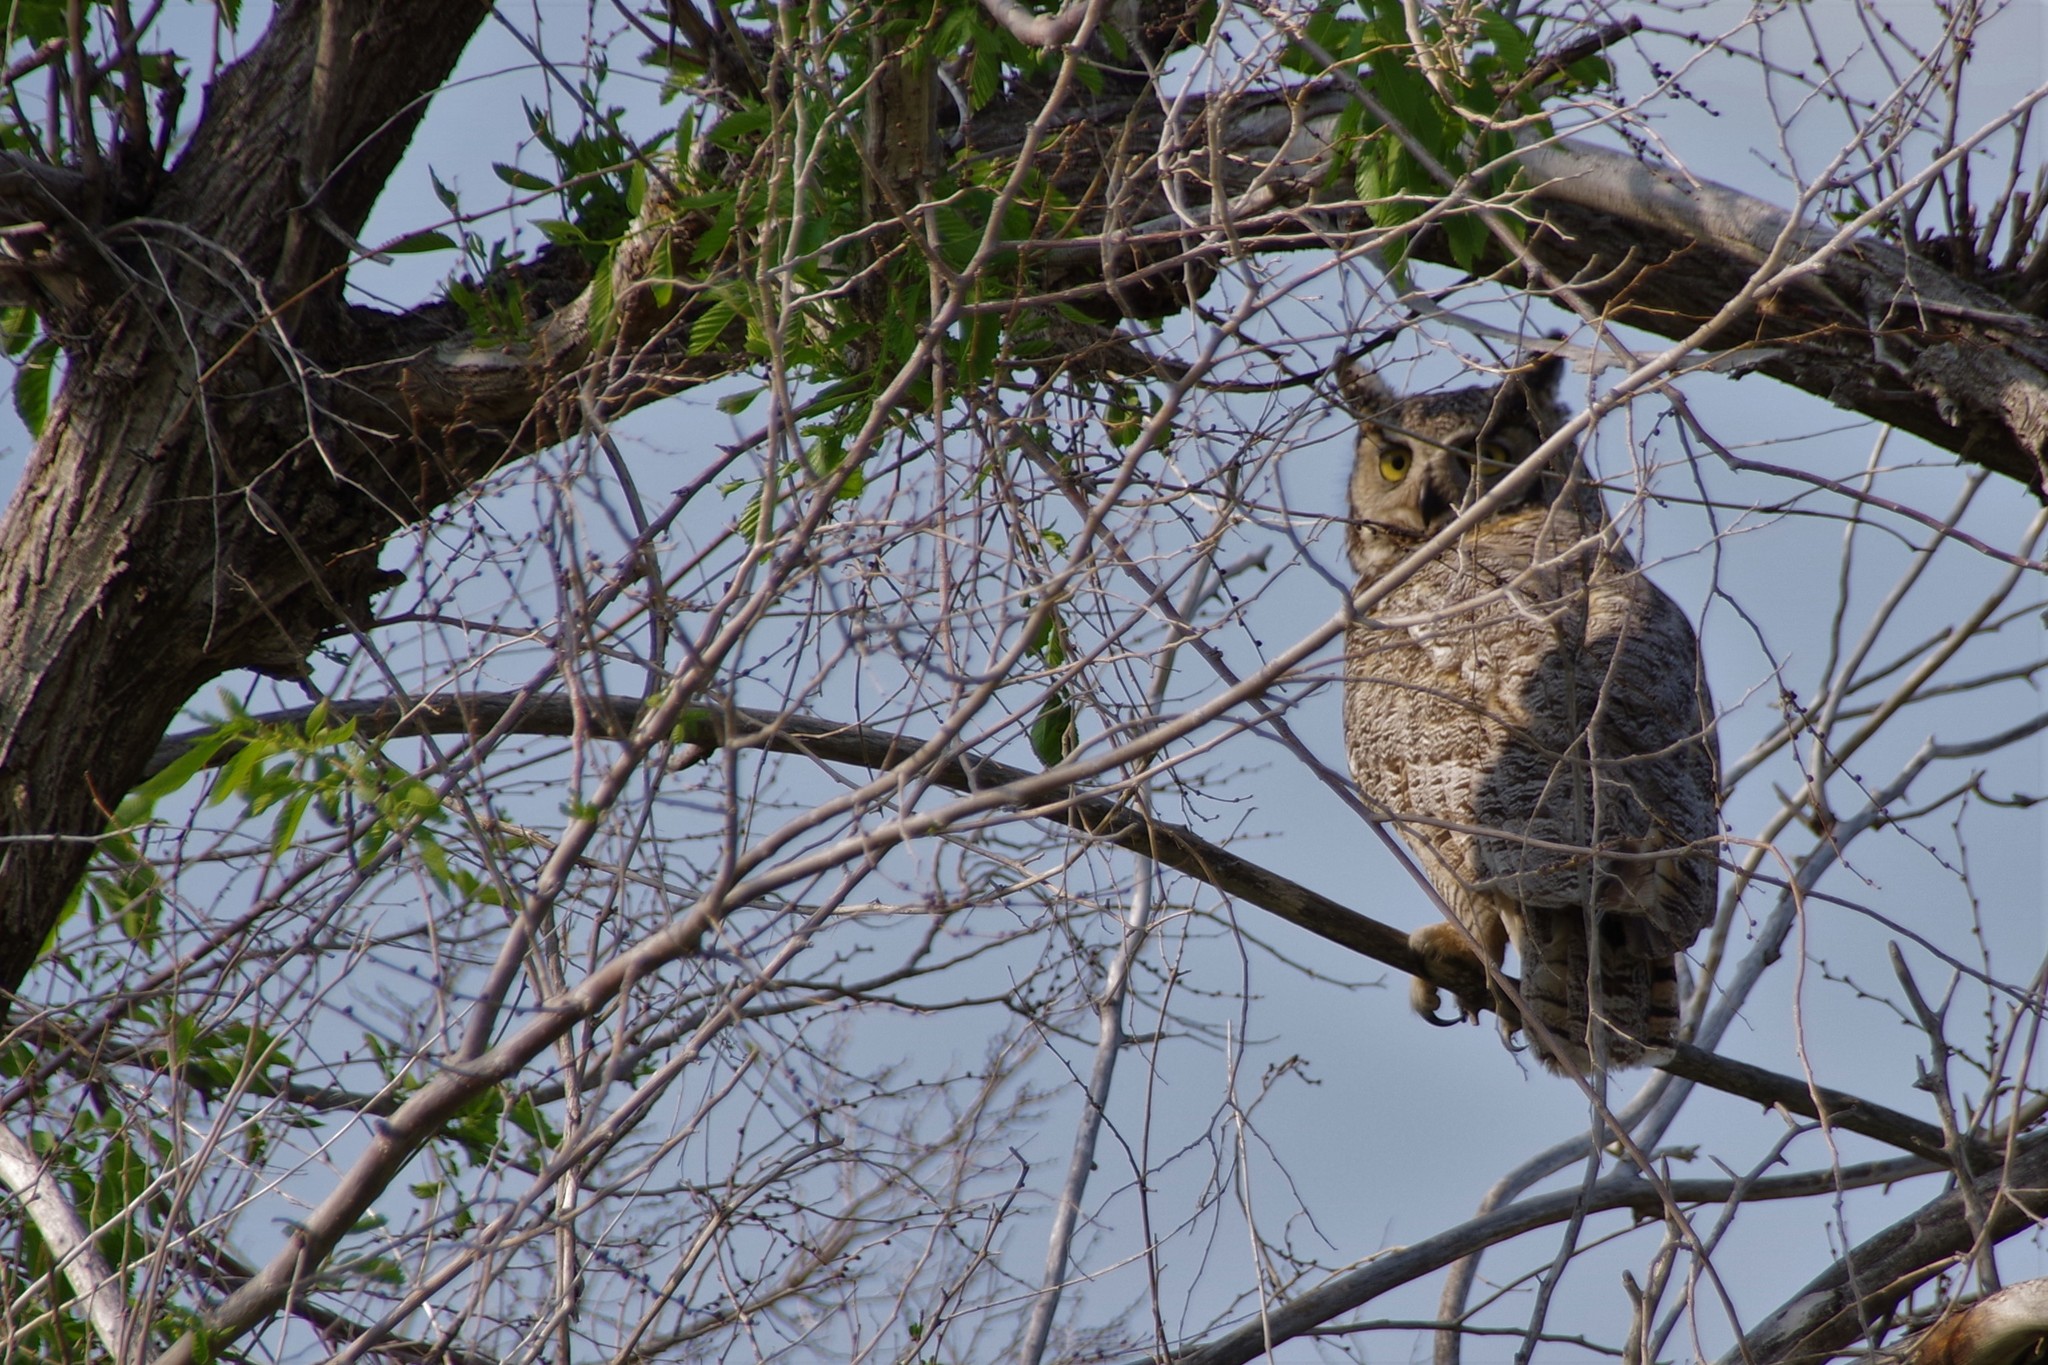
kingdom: Animalia
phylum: Chordata
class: Aves
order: Strigiformes
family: Strigidae
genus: Bubo
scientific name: Bubo virginianus
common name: Great horned owl
